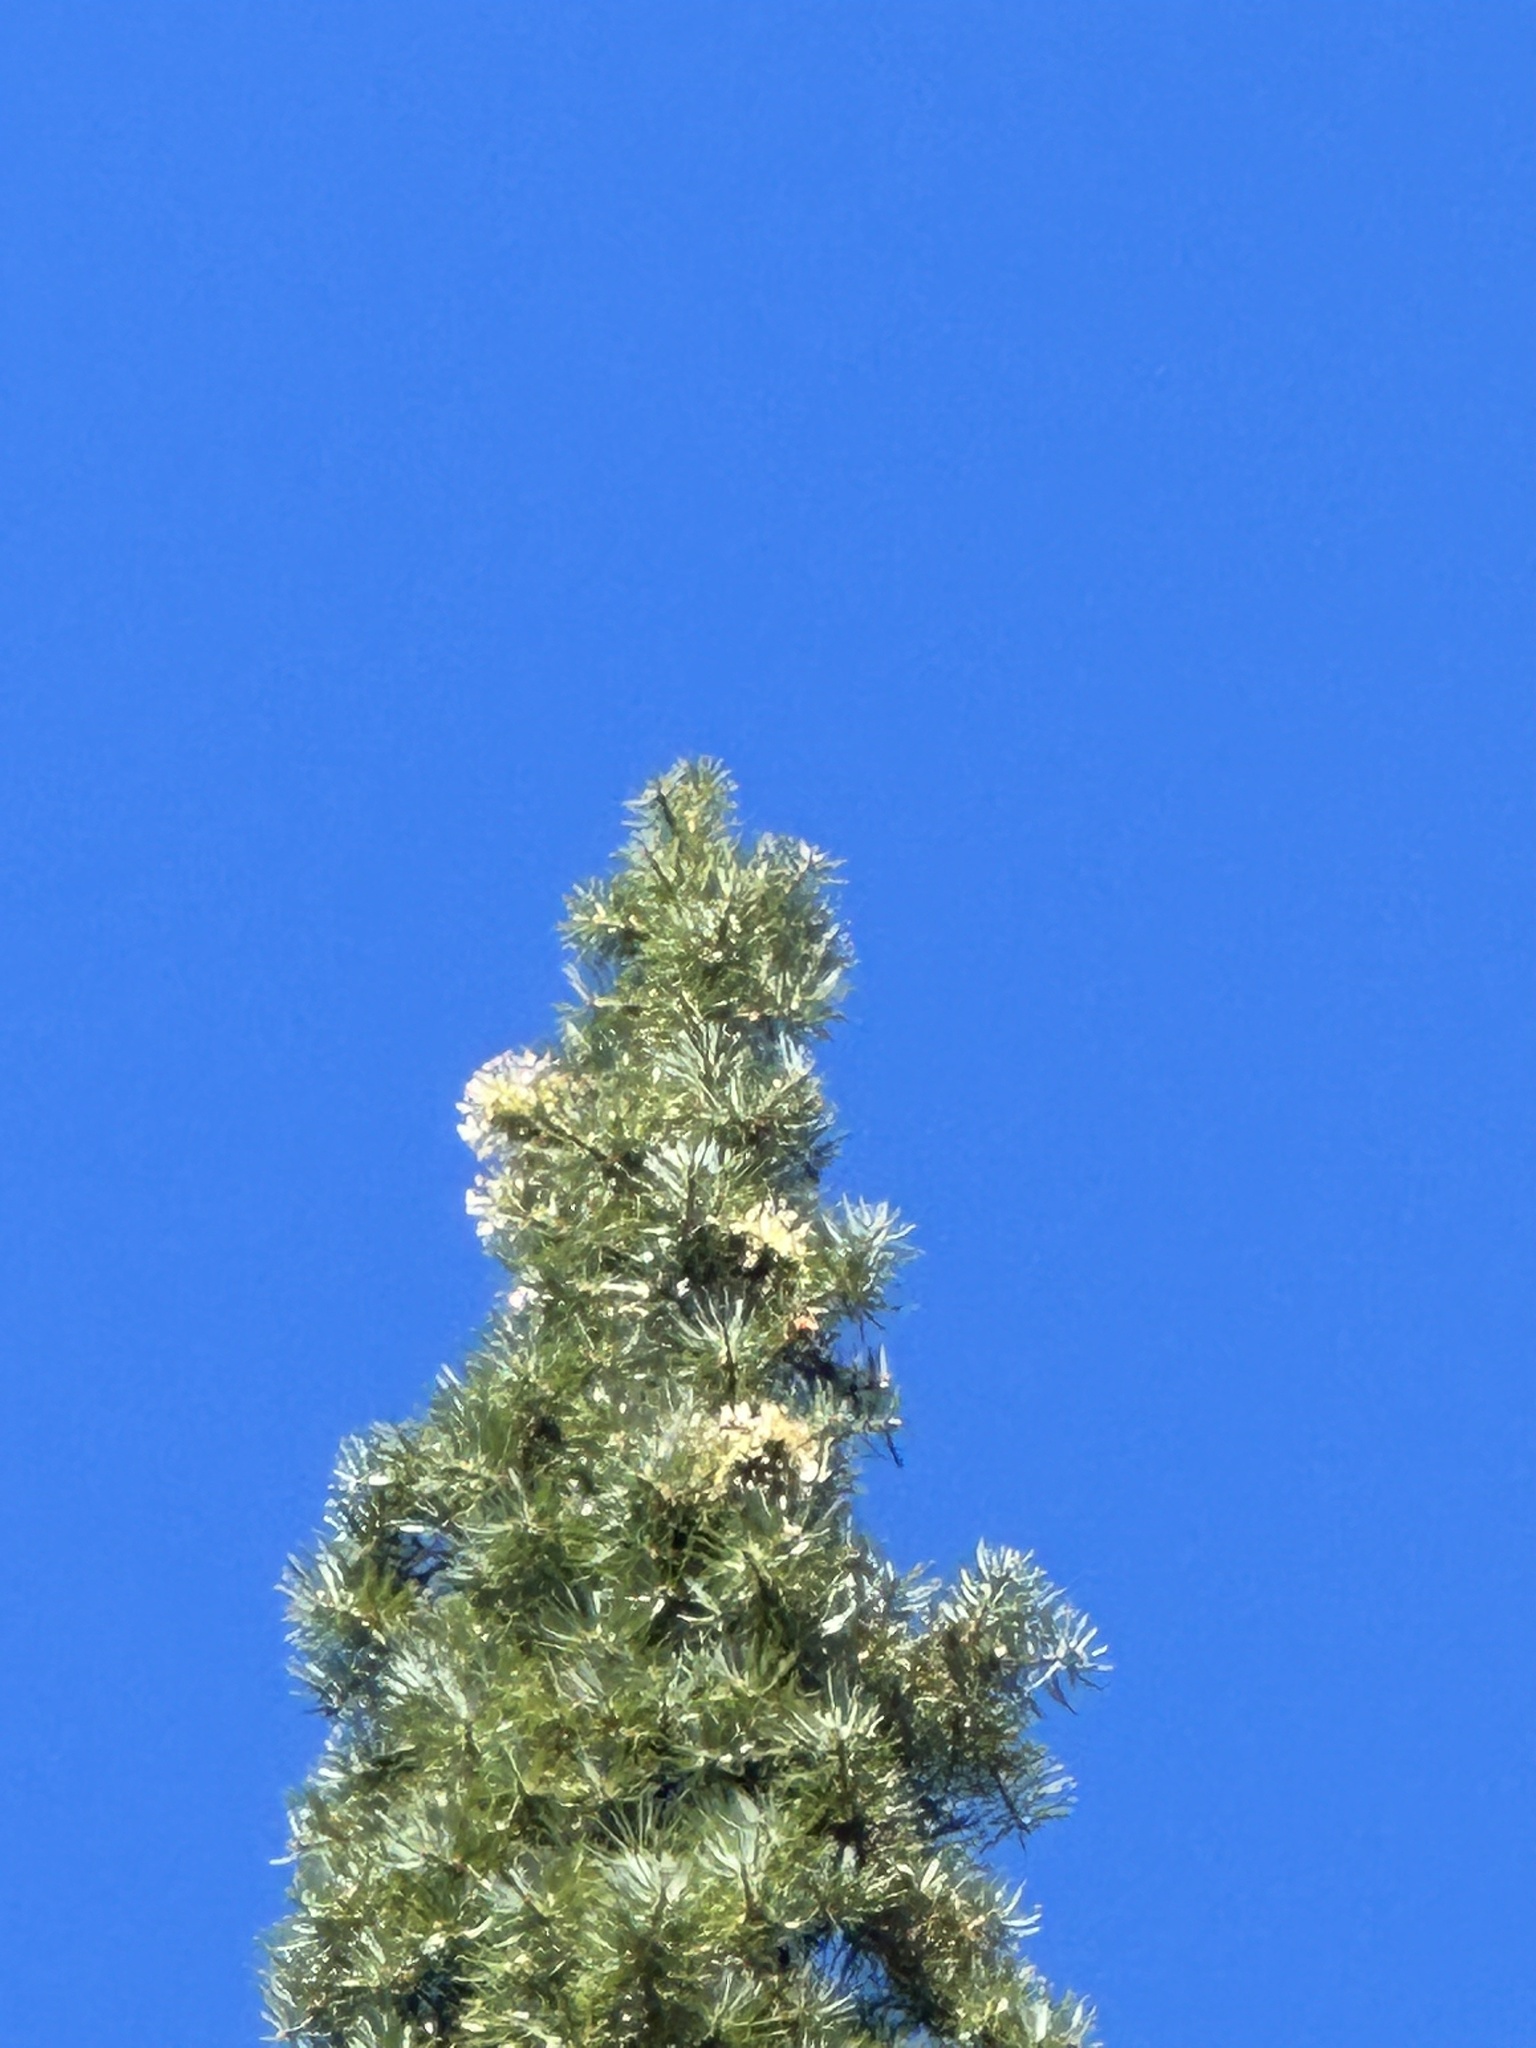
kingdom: Plantae
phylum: Tracheophyta
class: Pinopsida
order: Pinales
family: Pinaceae
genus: Abies
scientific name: Abies bracteata
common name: Bristlecone fir
